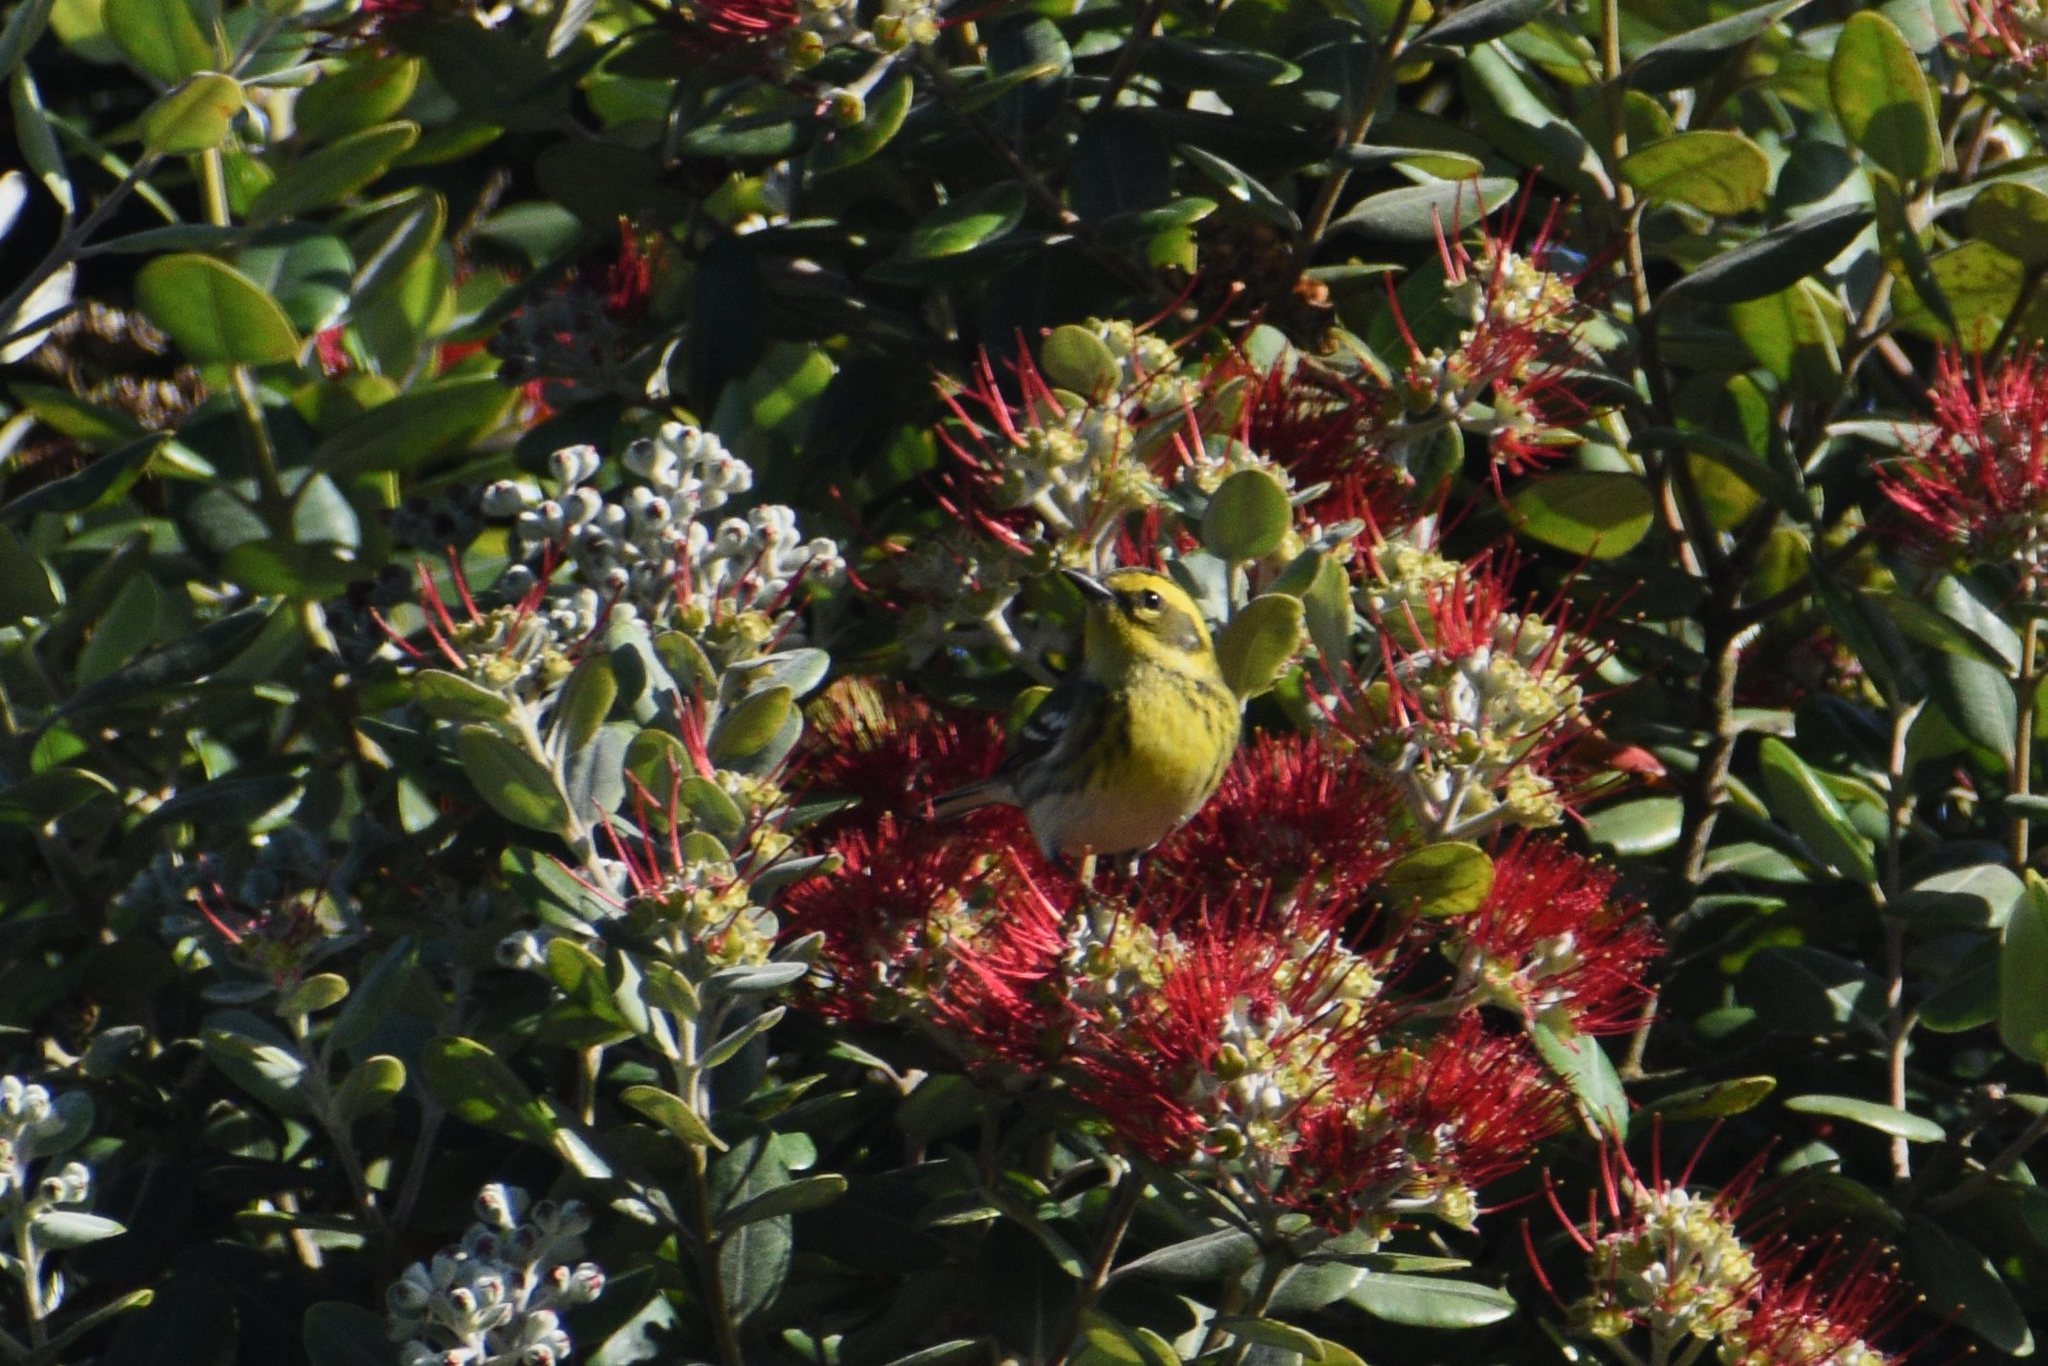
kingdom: Animalia
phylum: Chordata
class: Aves
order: Passeriformes
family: Parulidae
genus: Setophaga
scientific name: Setophaga townsendi
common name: Townsend's warbler
